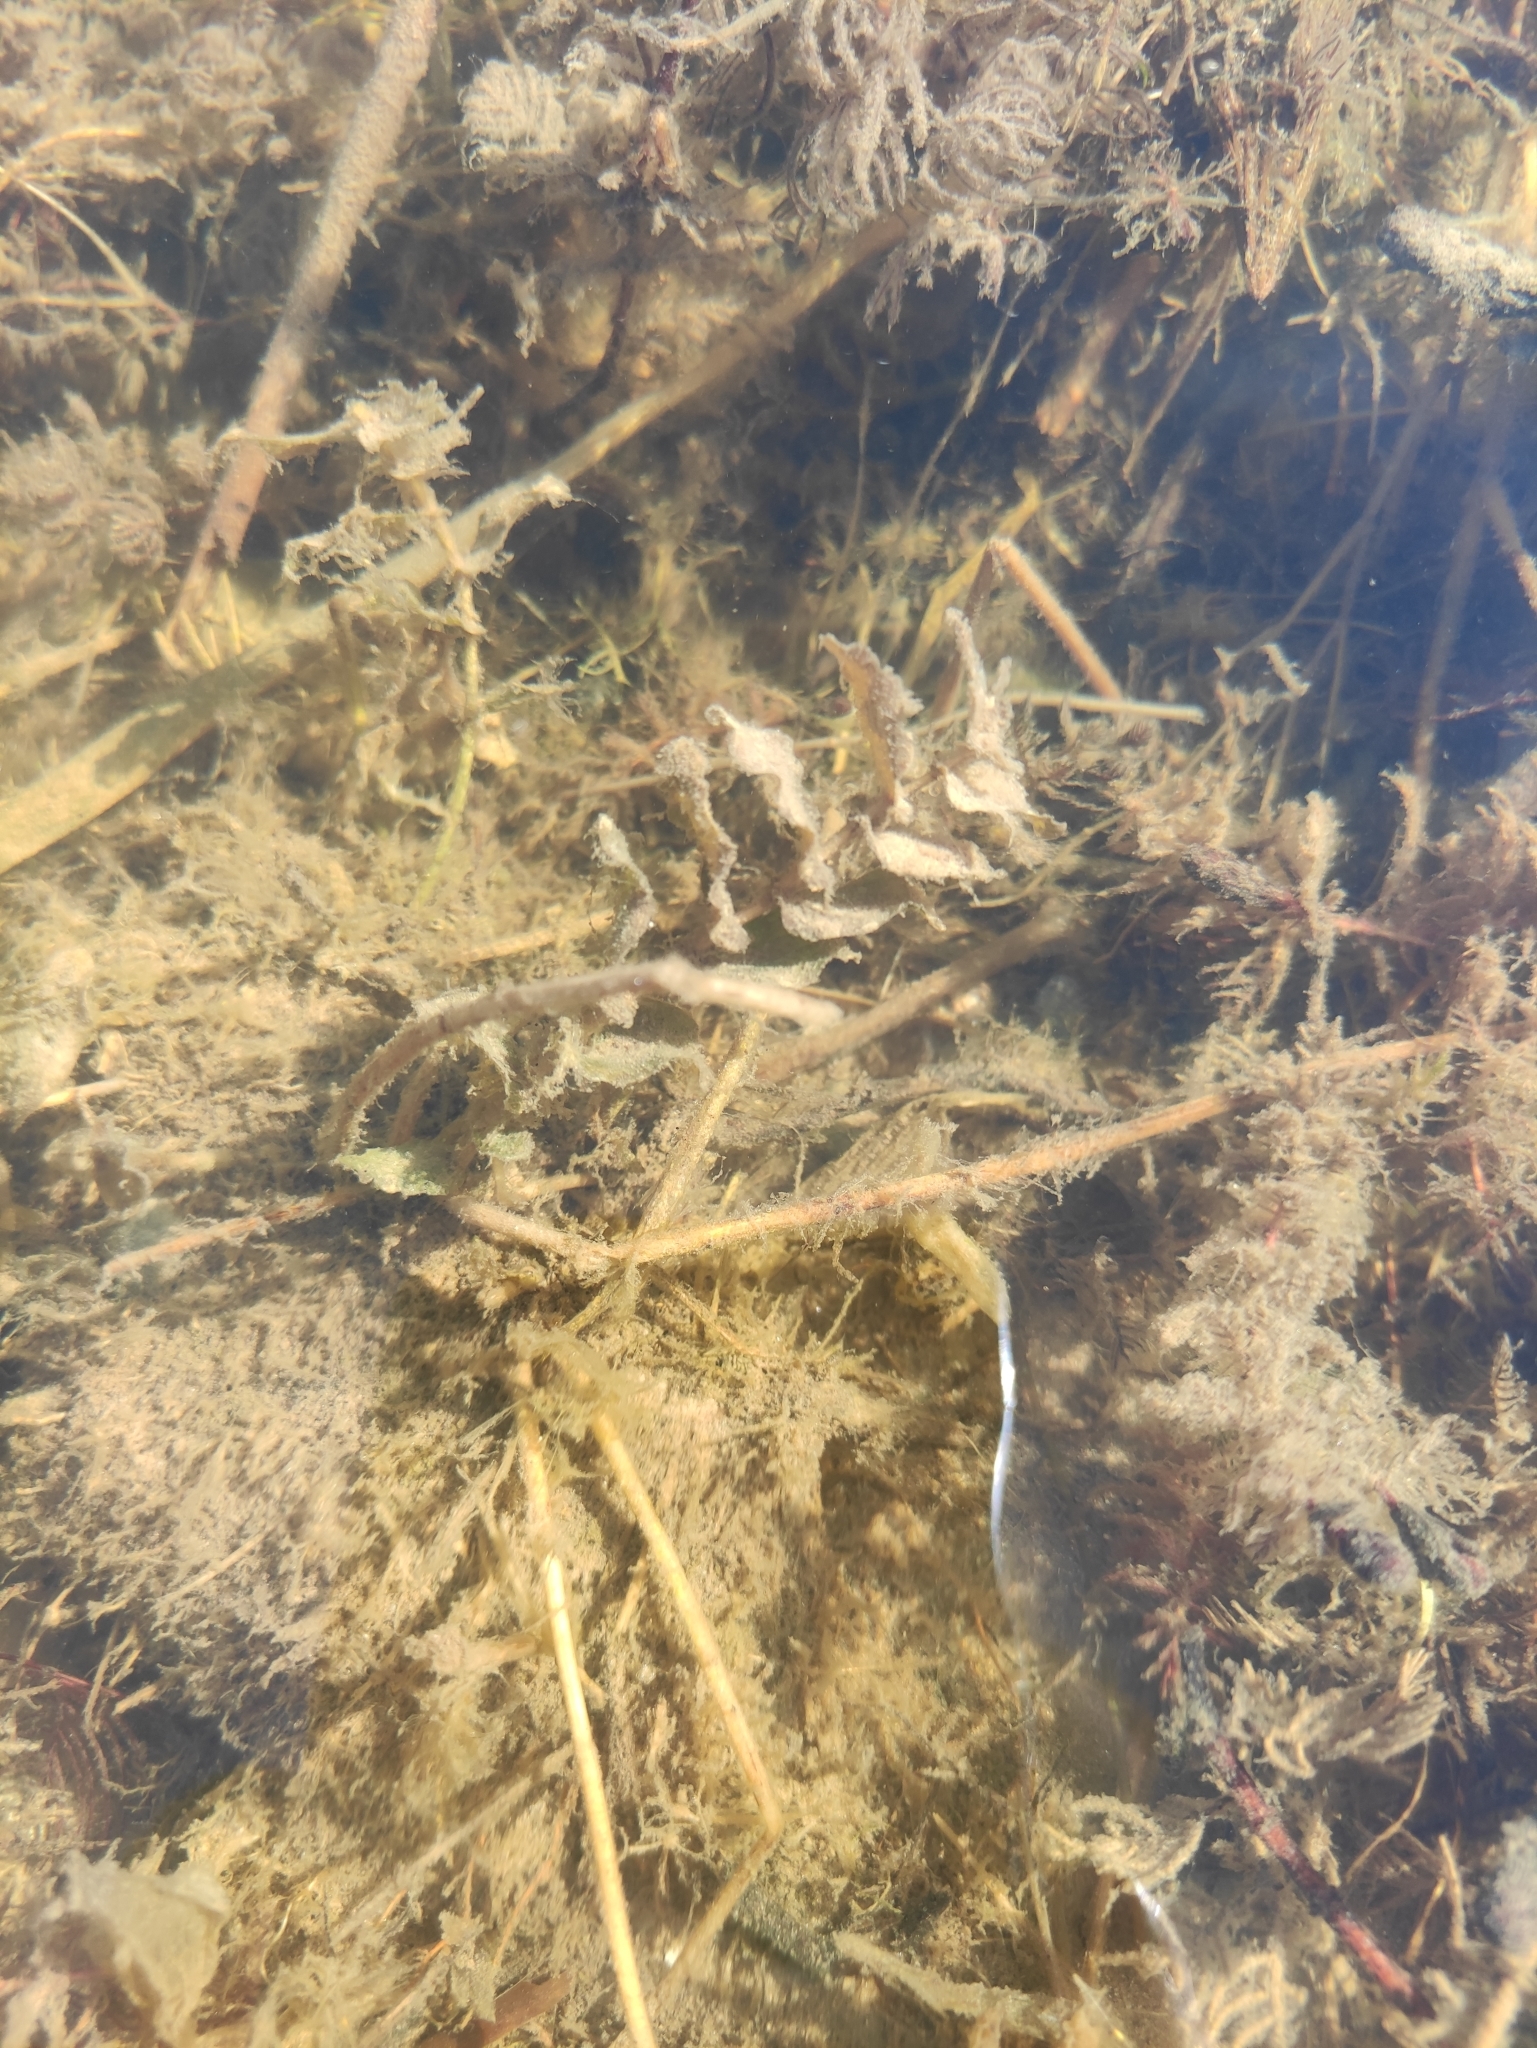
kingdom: Plantae
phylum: Tracheophyta
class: Liliopsida
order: Alismatales
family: Potamogetonaceae
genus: Potamogeton
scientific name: Potamogeton perfoliatus
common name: Perfoliate pondweed
